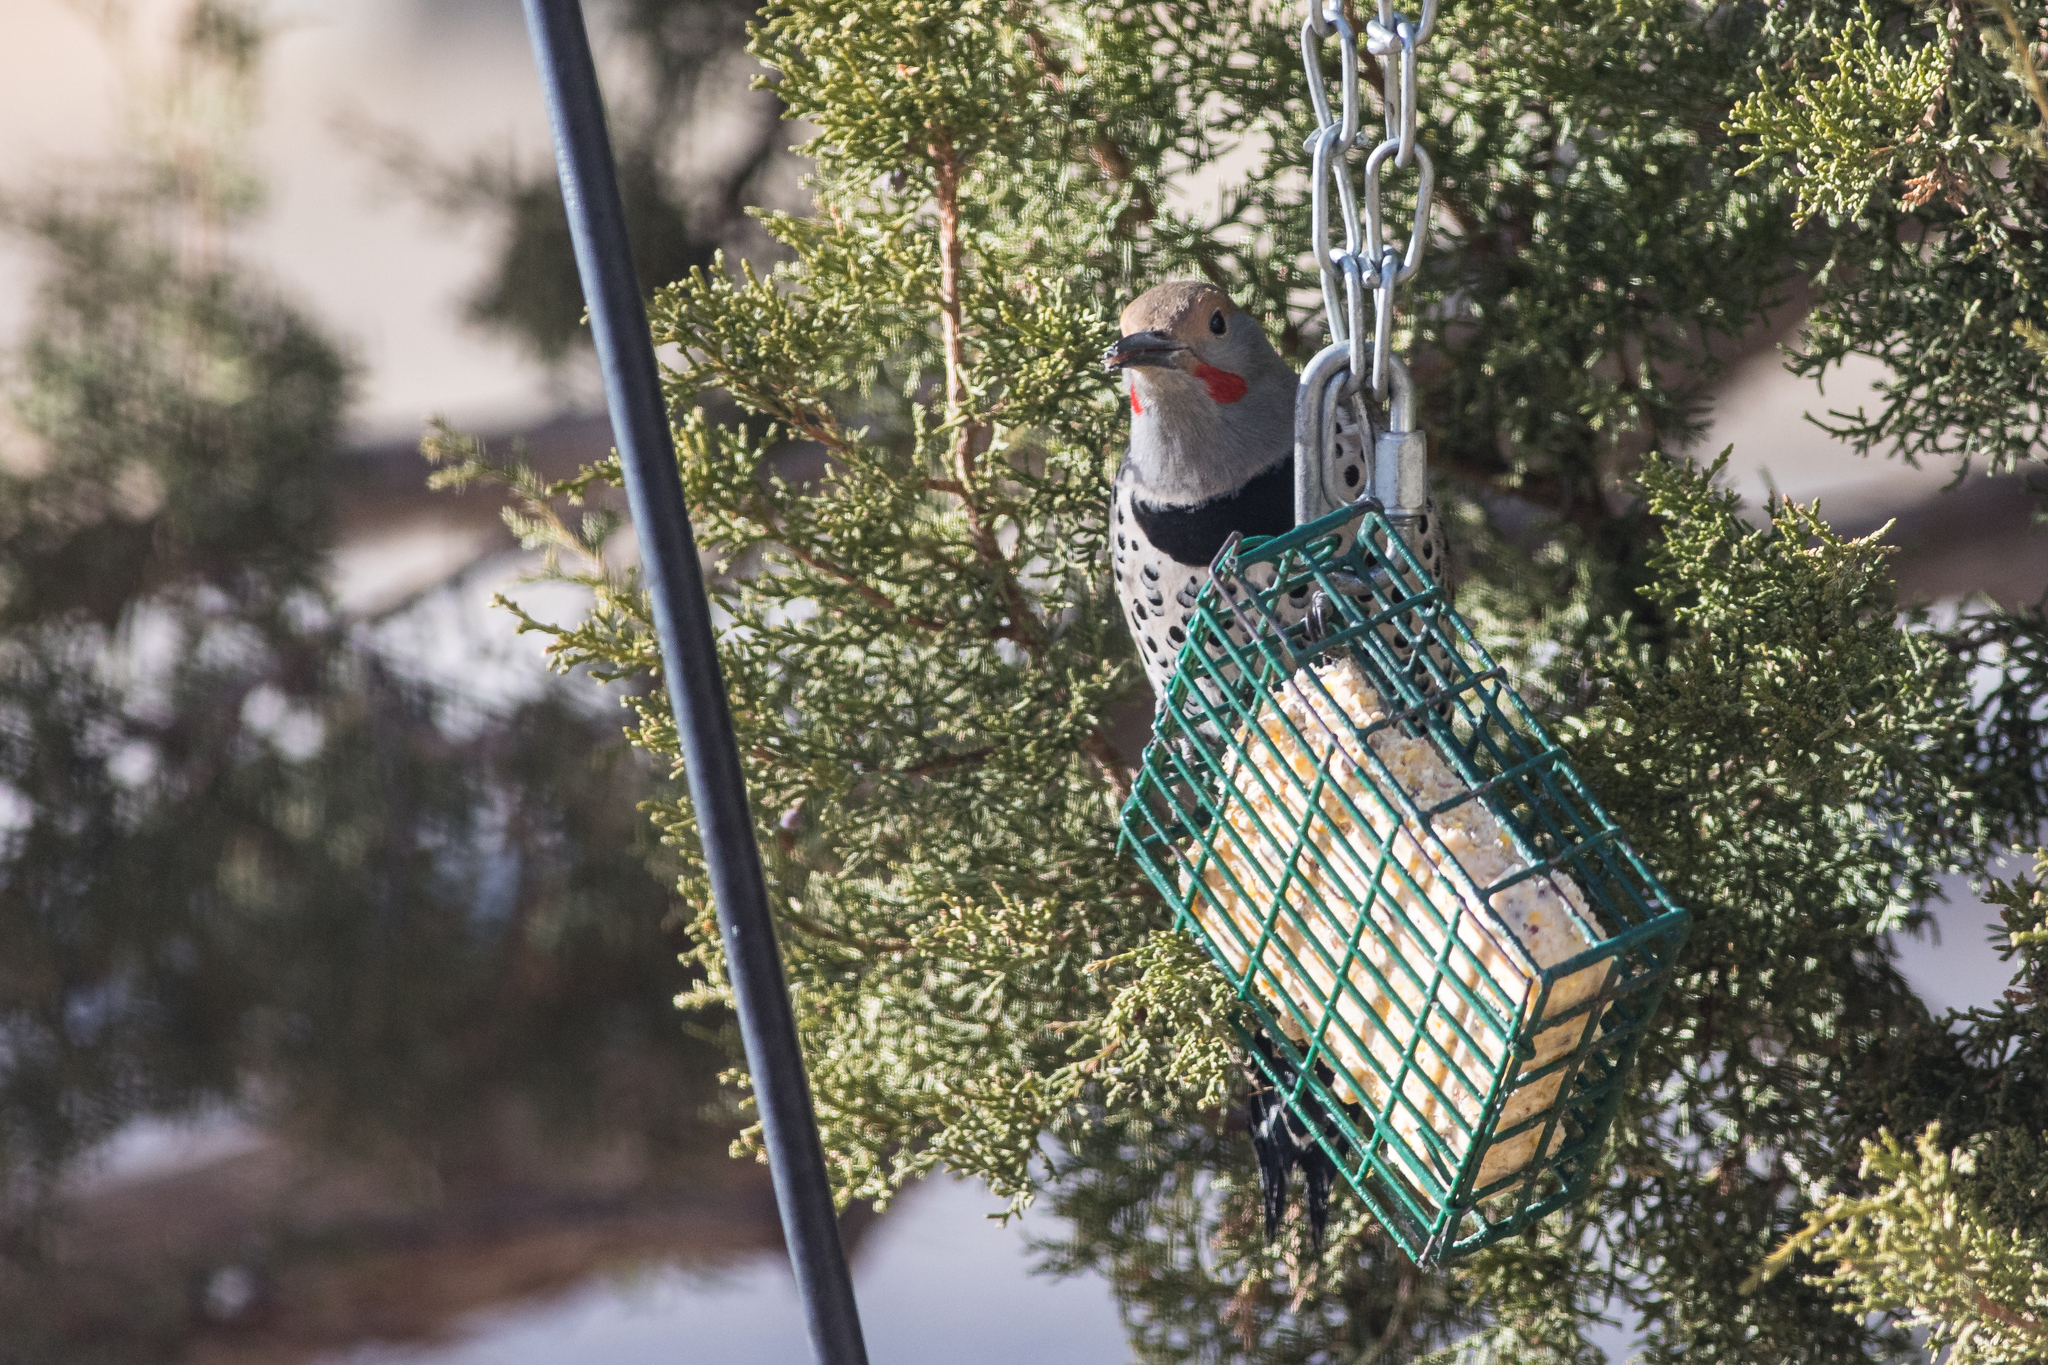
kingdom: Animalia
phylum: Chordata
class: Aves
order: Piciformes
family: Picidae
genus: Colaptes
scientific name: Colaptes auratus
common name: Northern flicker
